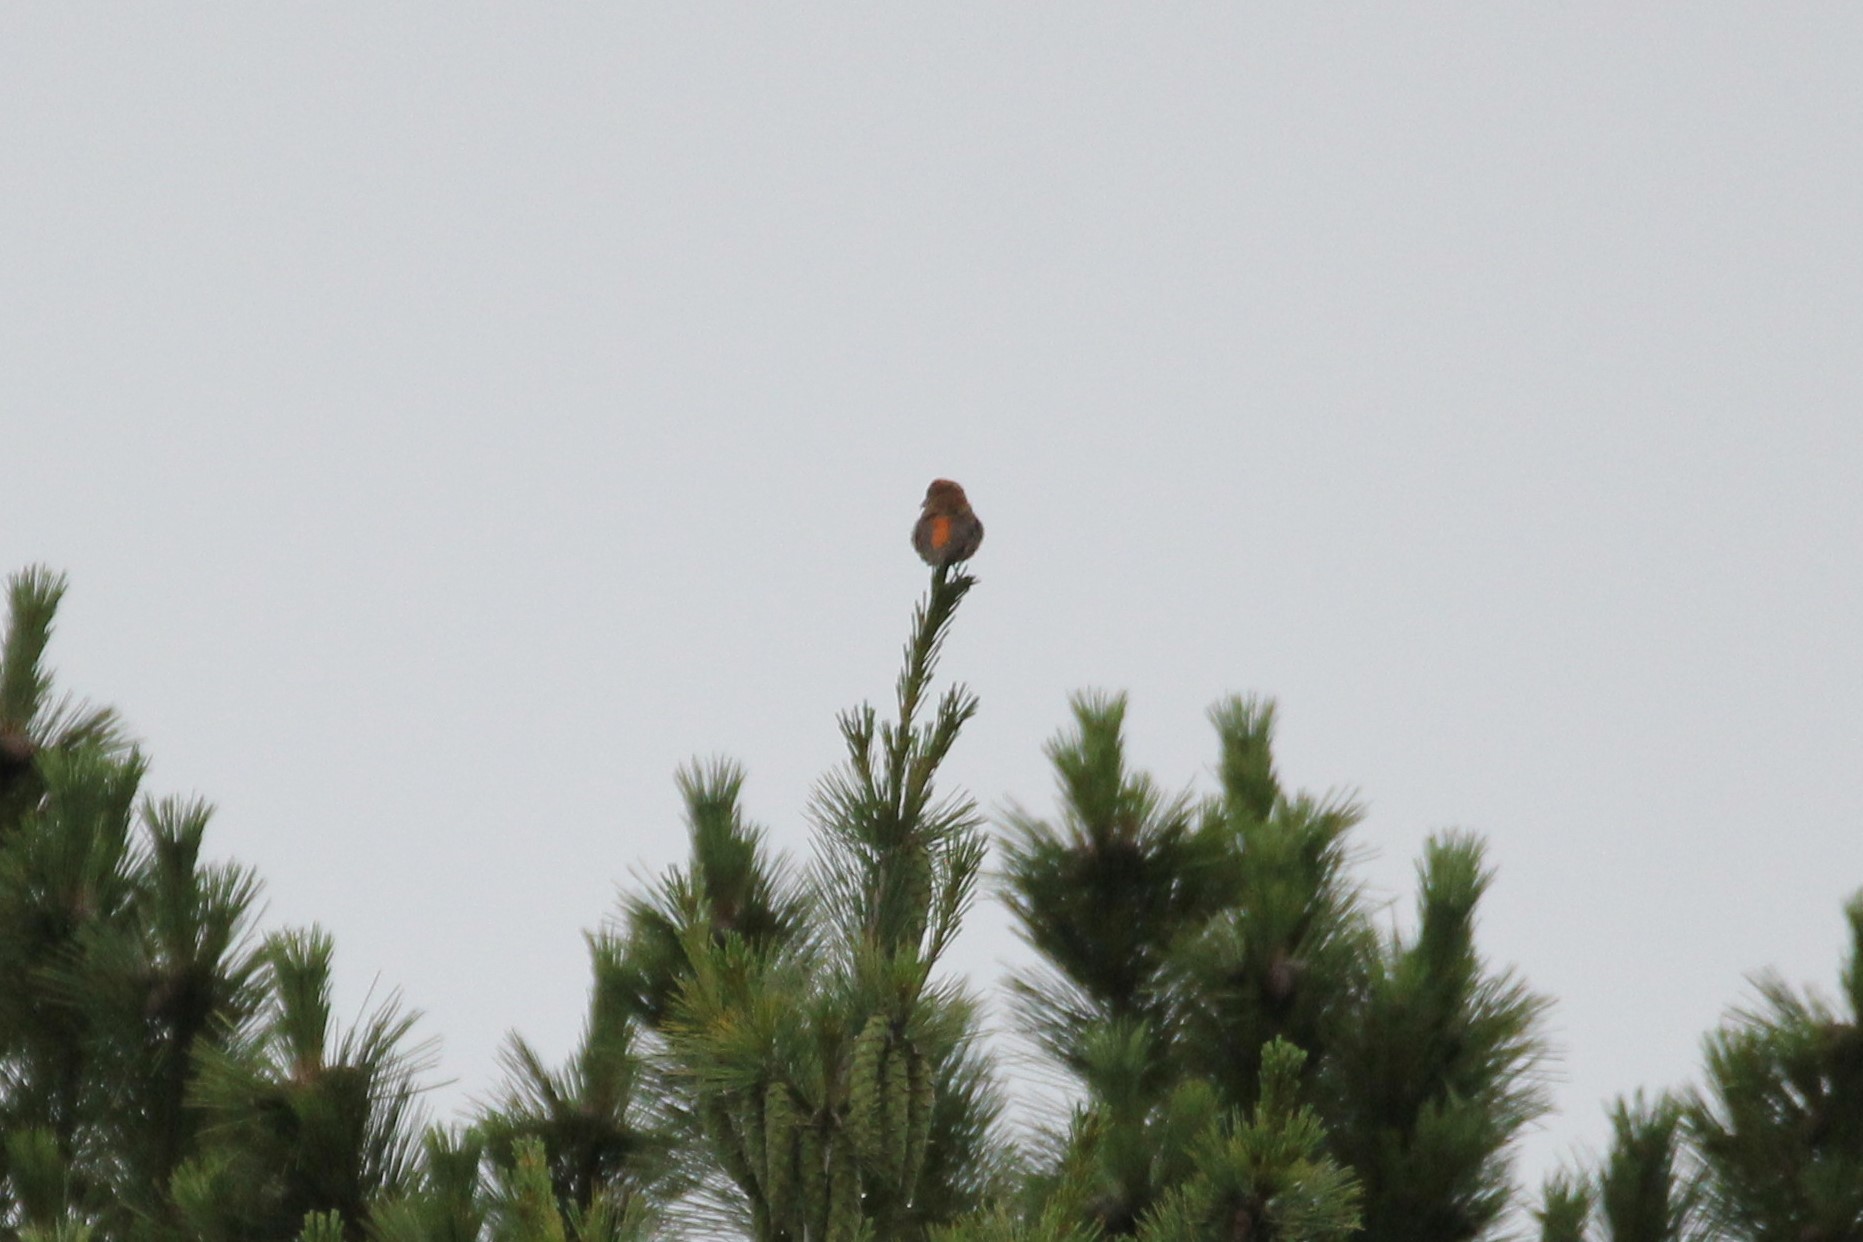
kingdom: Animalia
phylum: Chordata
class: Aves
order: Passeriformes
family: Fringillidae
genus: Loxia
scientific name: Loxia curvirostra
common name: Red crossbill
